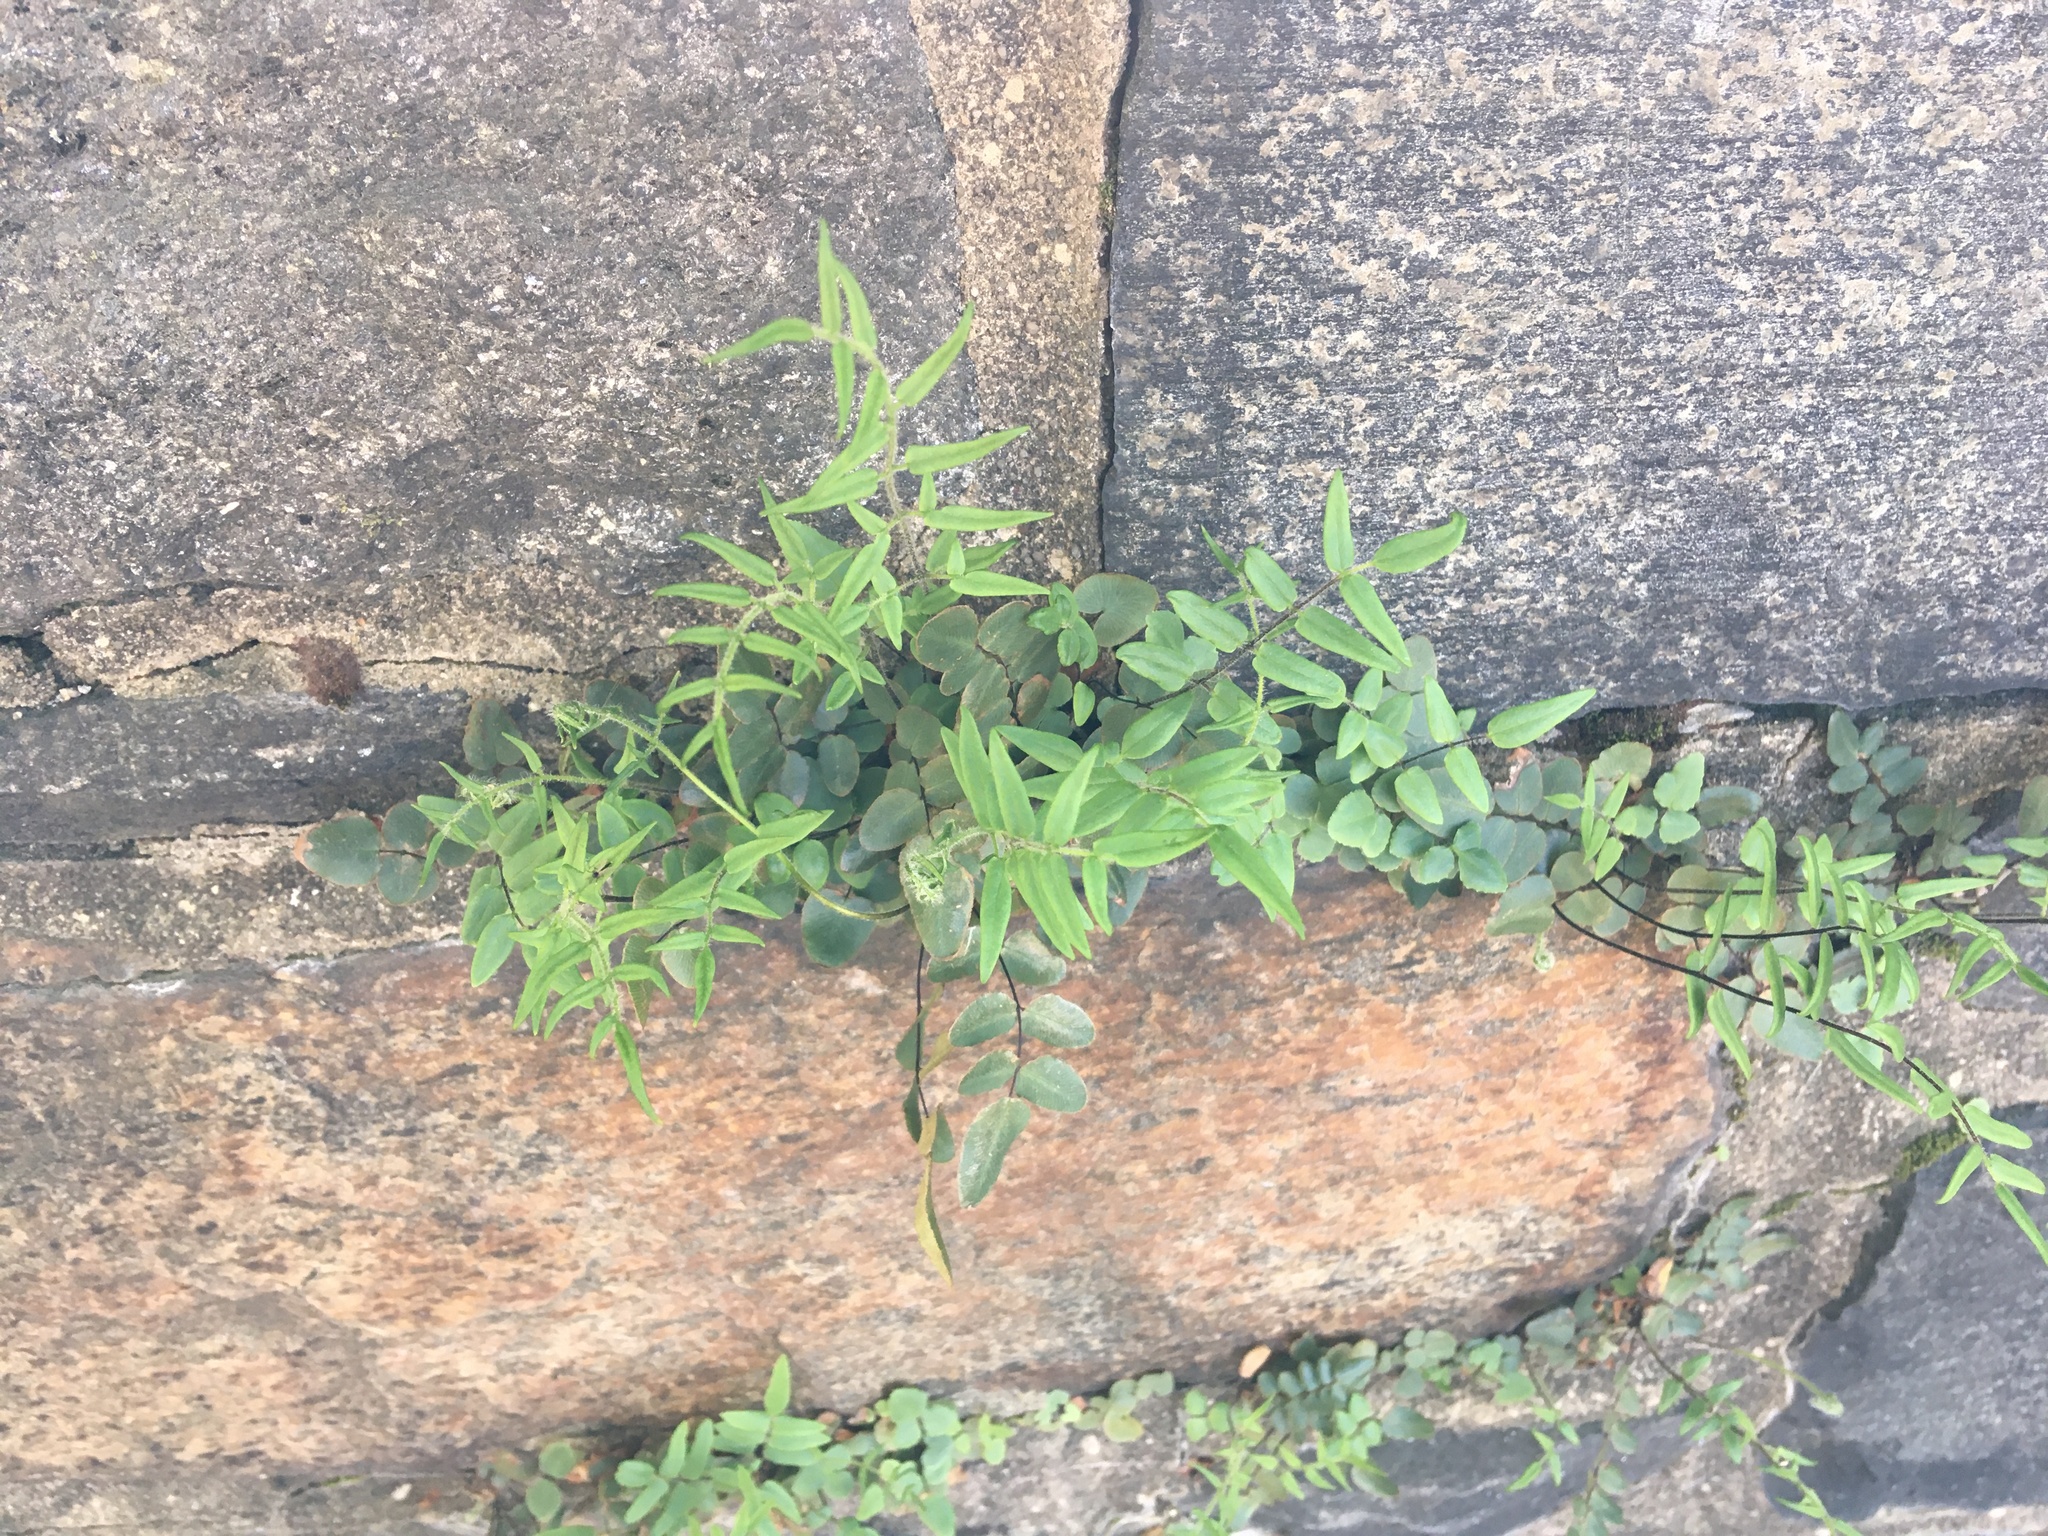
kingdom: Plantae
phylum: Tracheophyta
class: Polypodiopsida
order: Polypodiales
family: Pteridaceae
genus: Pellaea
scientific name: Pellaea atropurpurea
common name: Hairy cliffbrake
